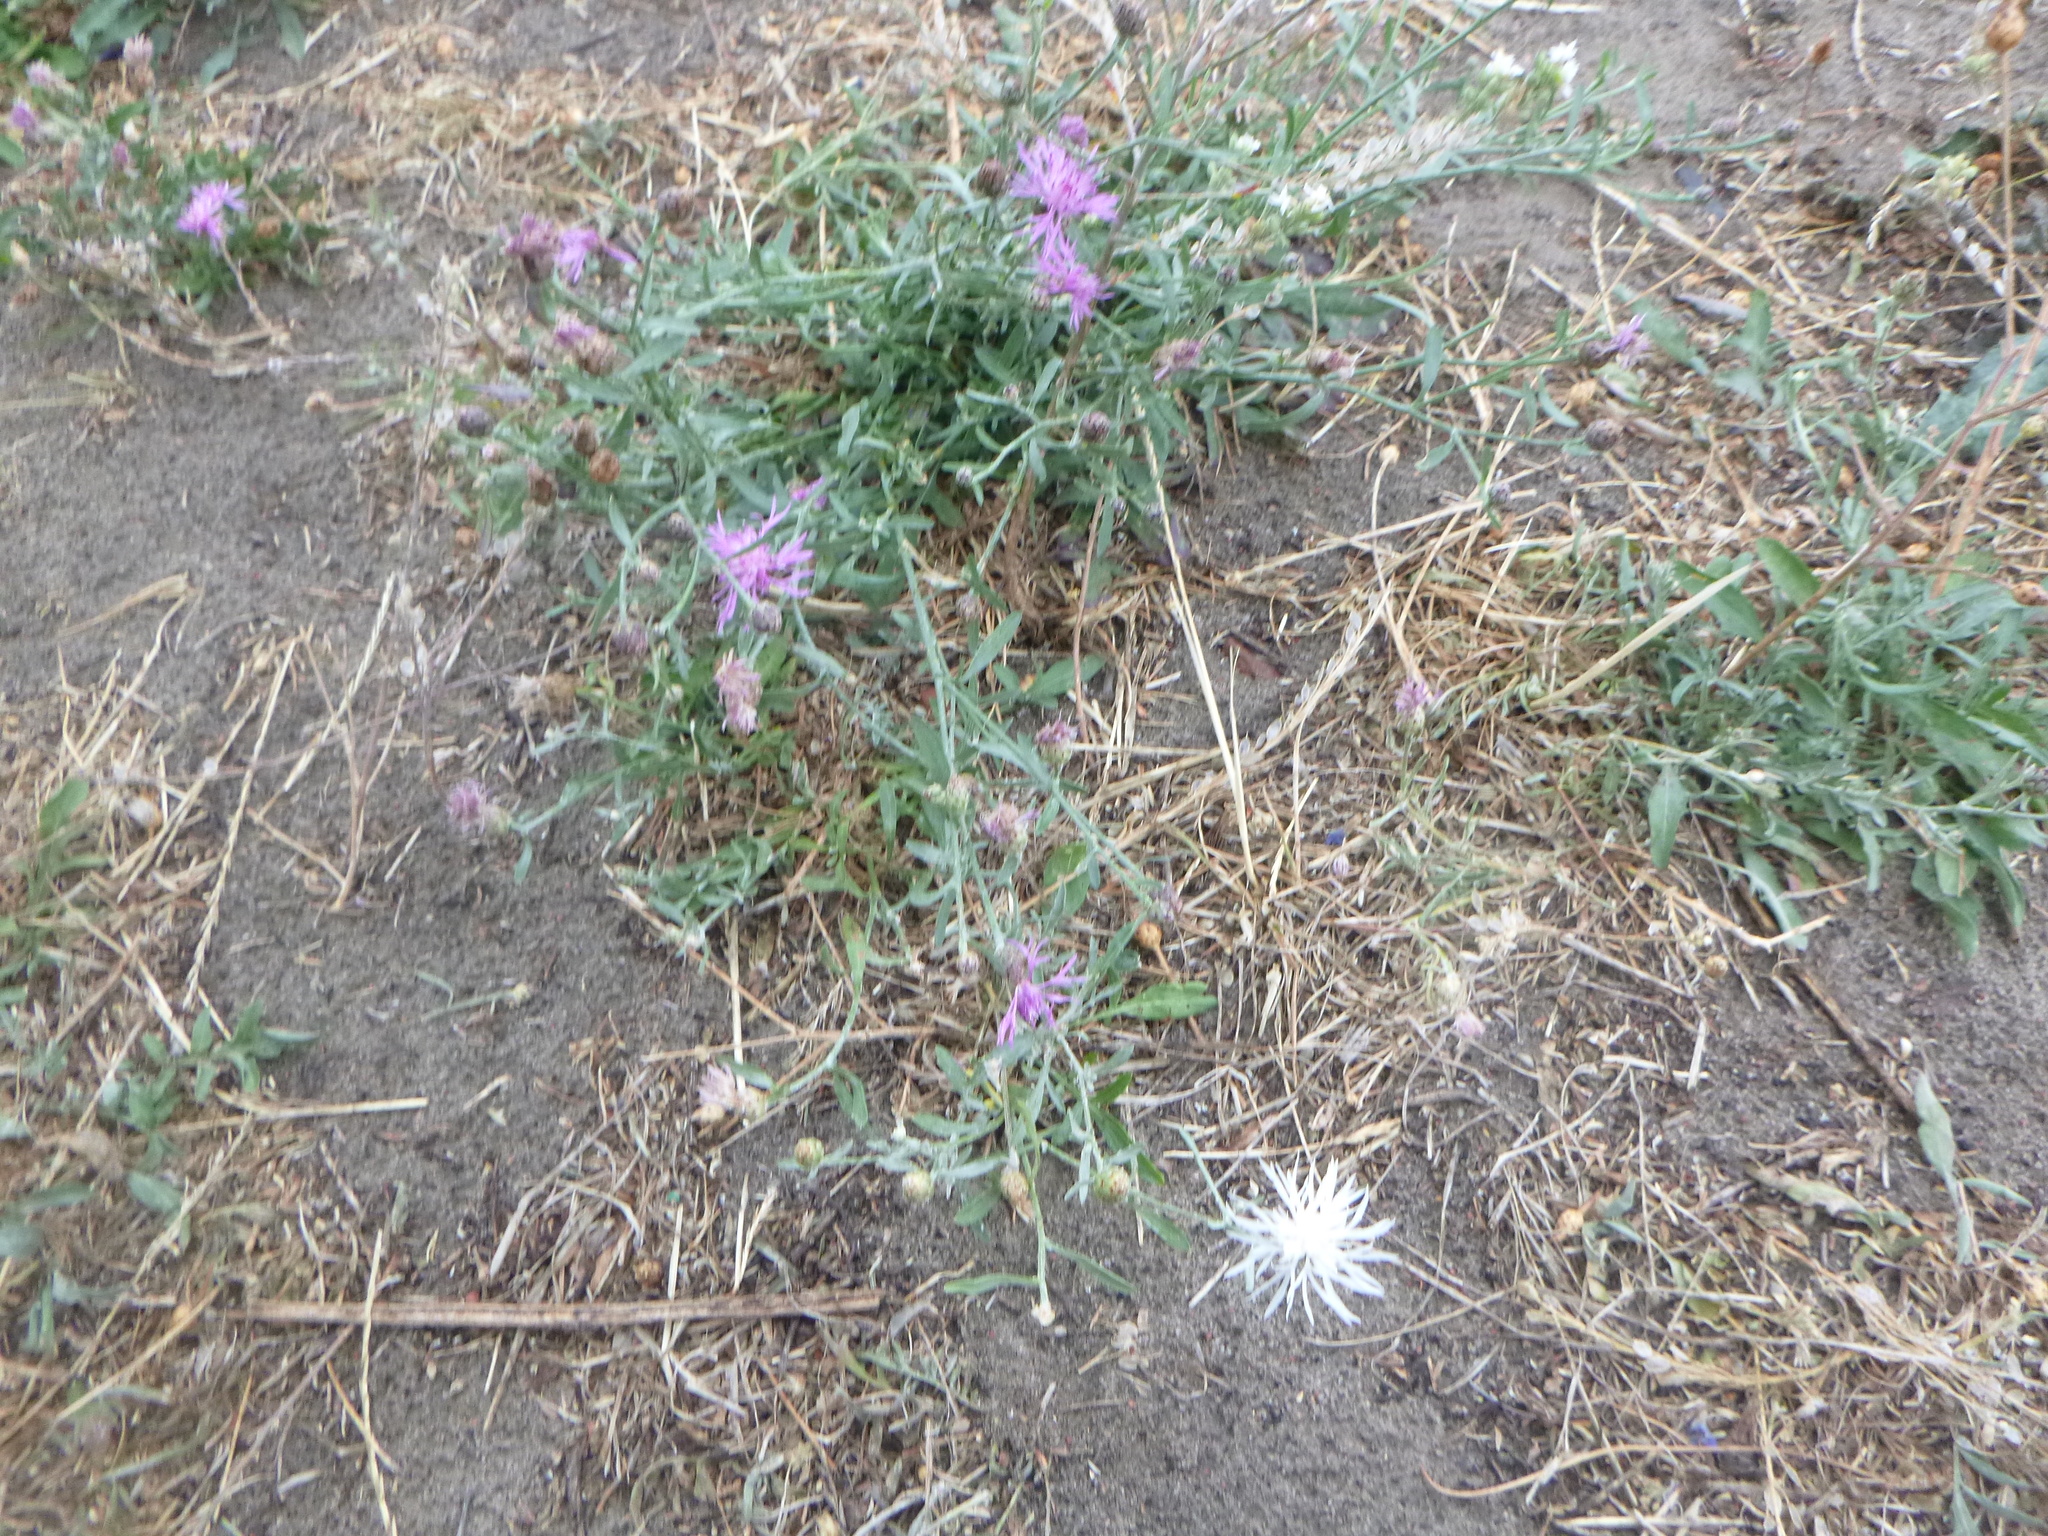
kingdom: Plantae
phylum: Tracheophyta
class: Magnoliopsida
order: Asterales
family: Asteraceae
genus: Centaurea
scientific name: Centaurea stoebe
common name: Spotted knapweed
